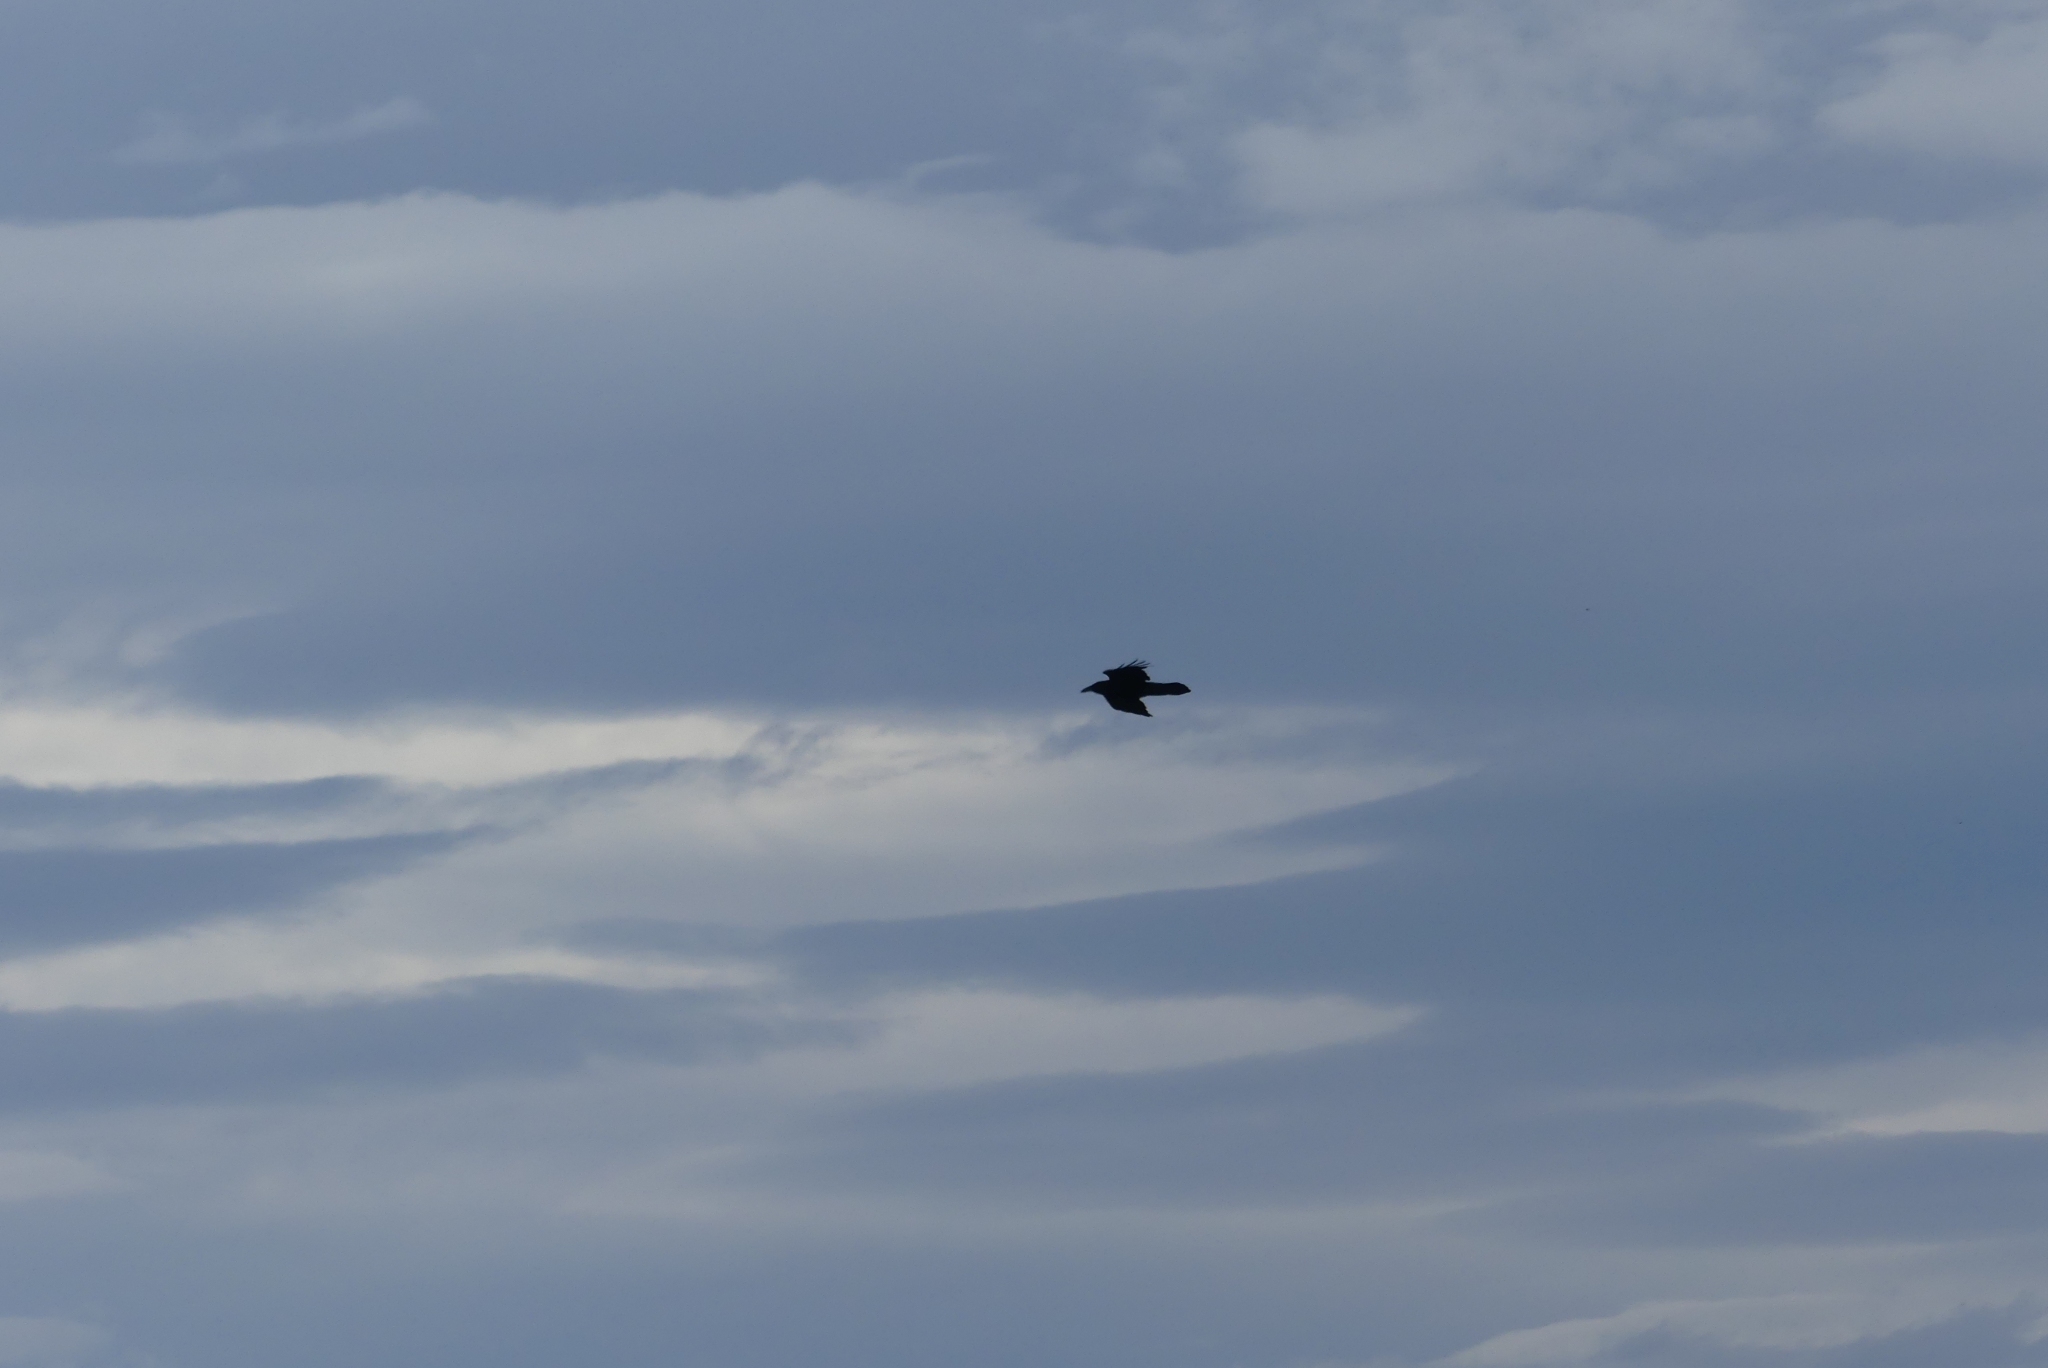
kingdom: Animalia
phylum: Chordata
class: Aves
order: Passeriformes
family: Corvidae
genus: Corvus
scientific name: Corvus corax
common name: Common raven
